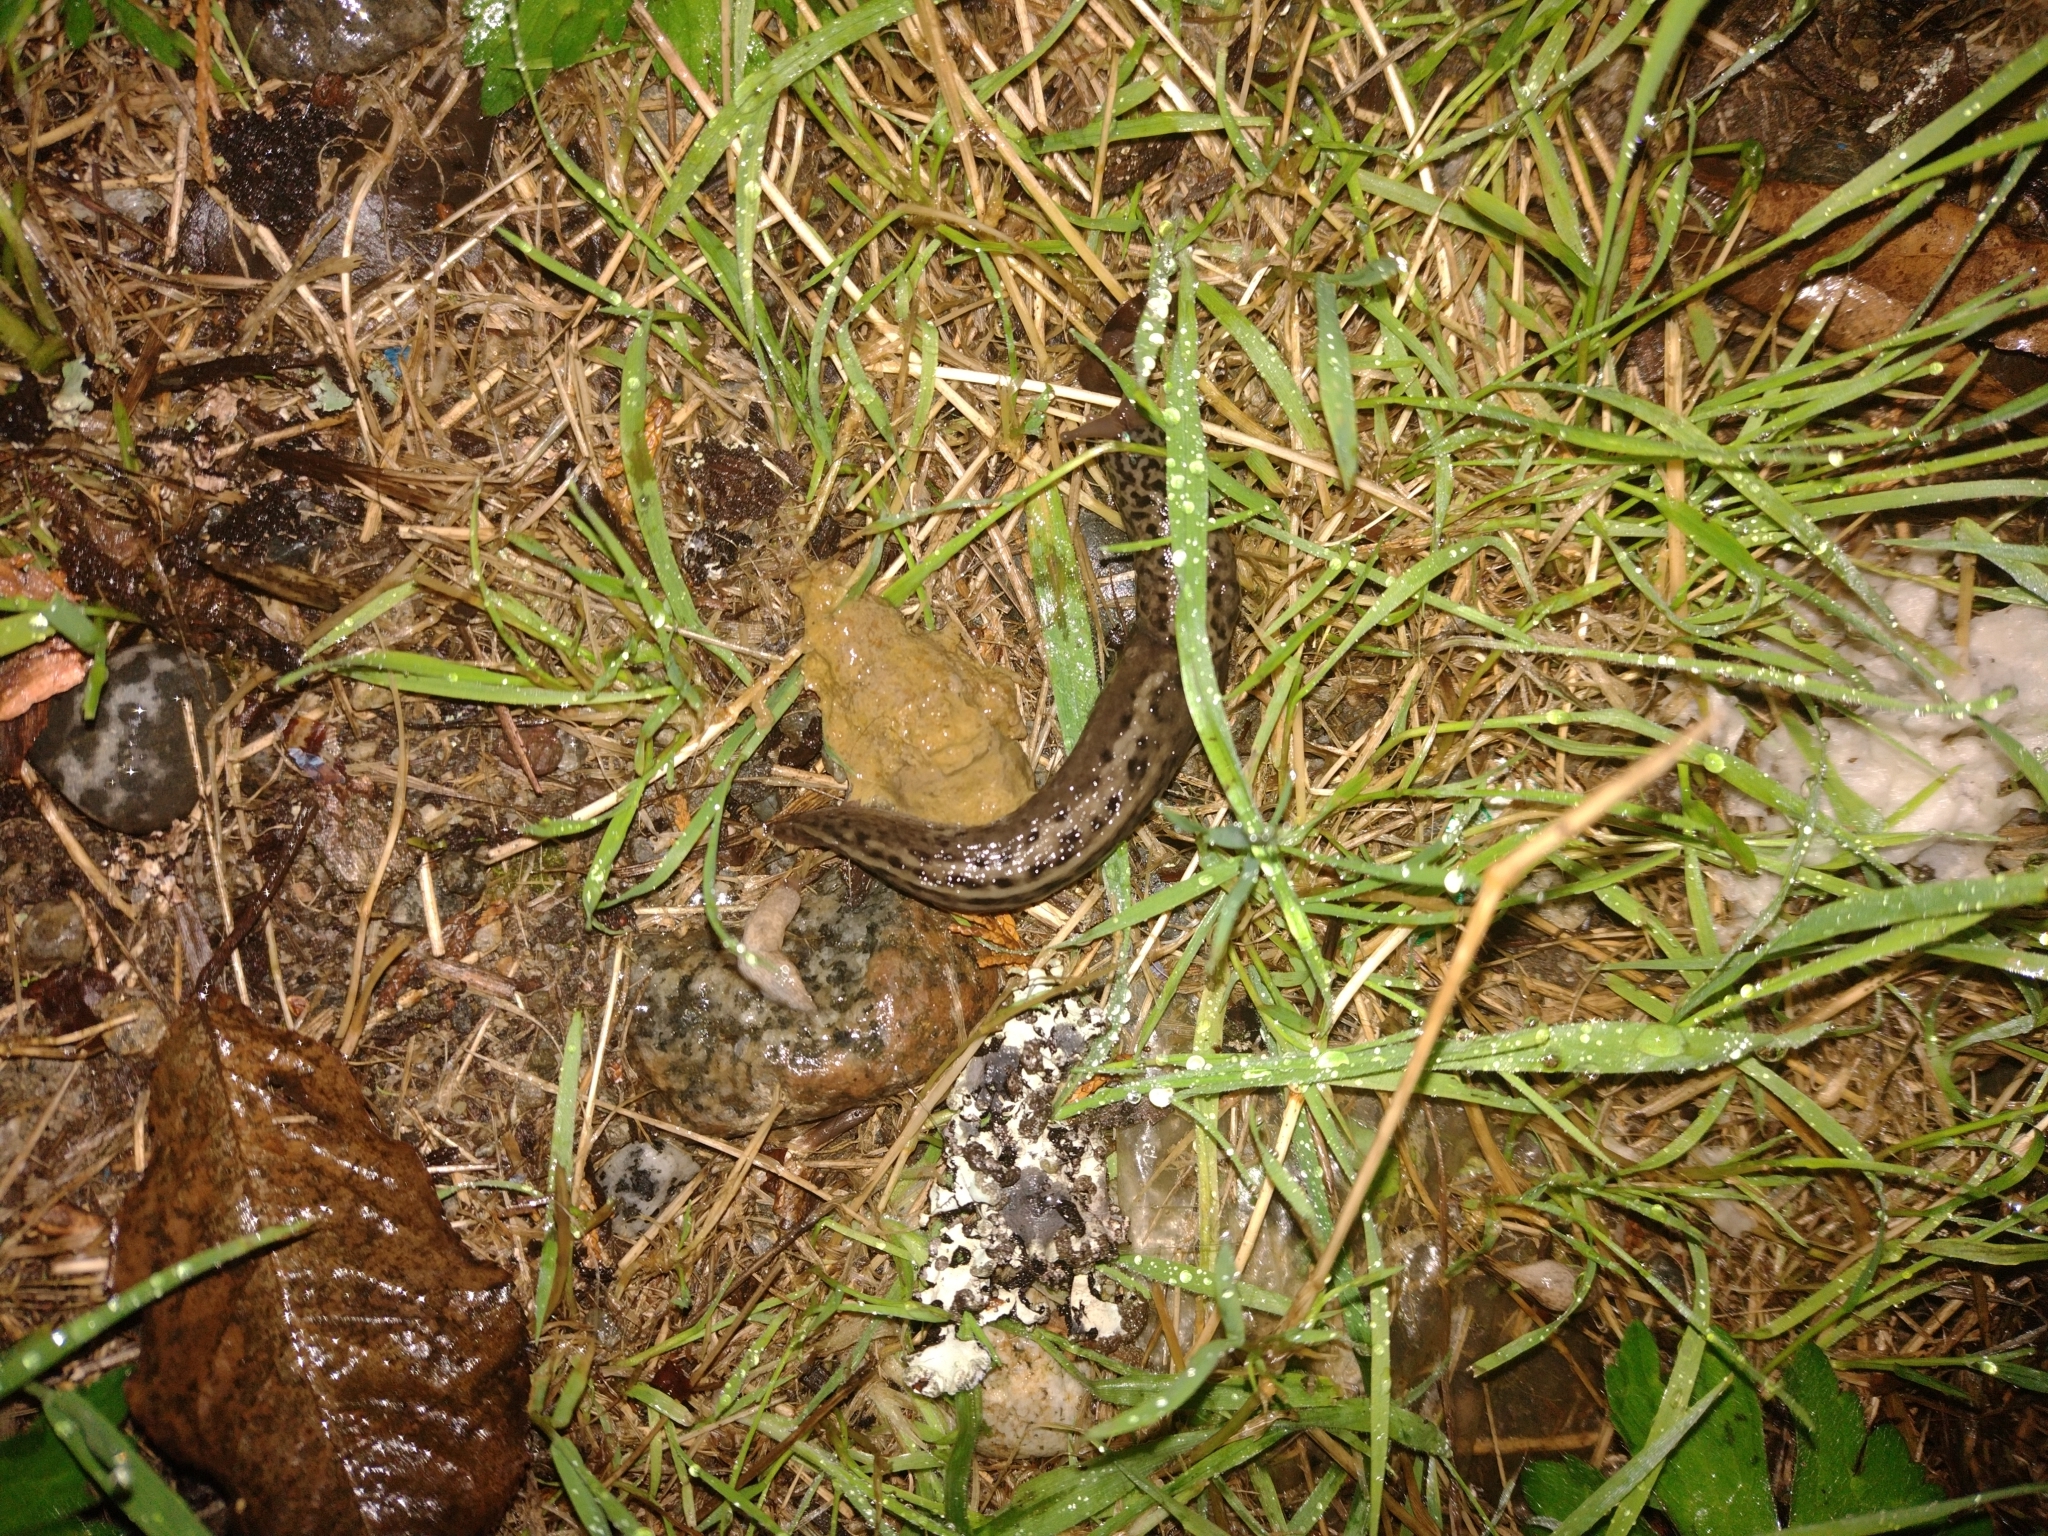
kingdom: Animalia
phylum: Mollusca
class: Gastropoda
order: Stylommatophora
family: Limacidae
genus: Limax
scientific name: Limax maximus
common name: Great grey slug
